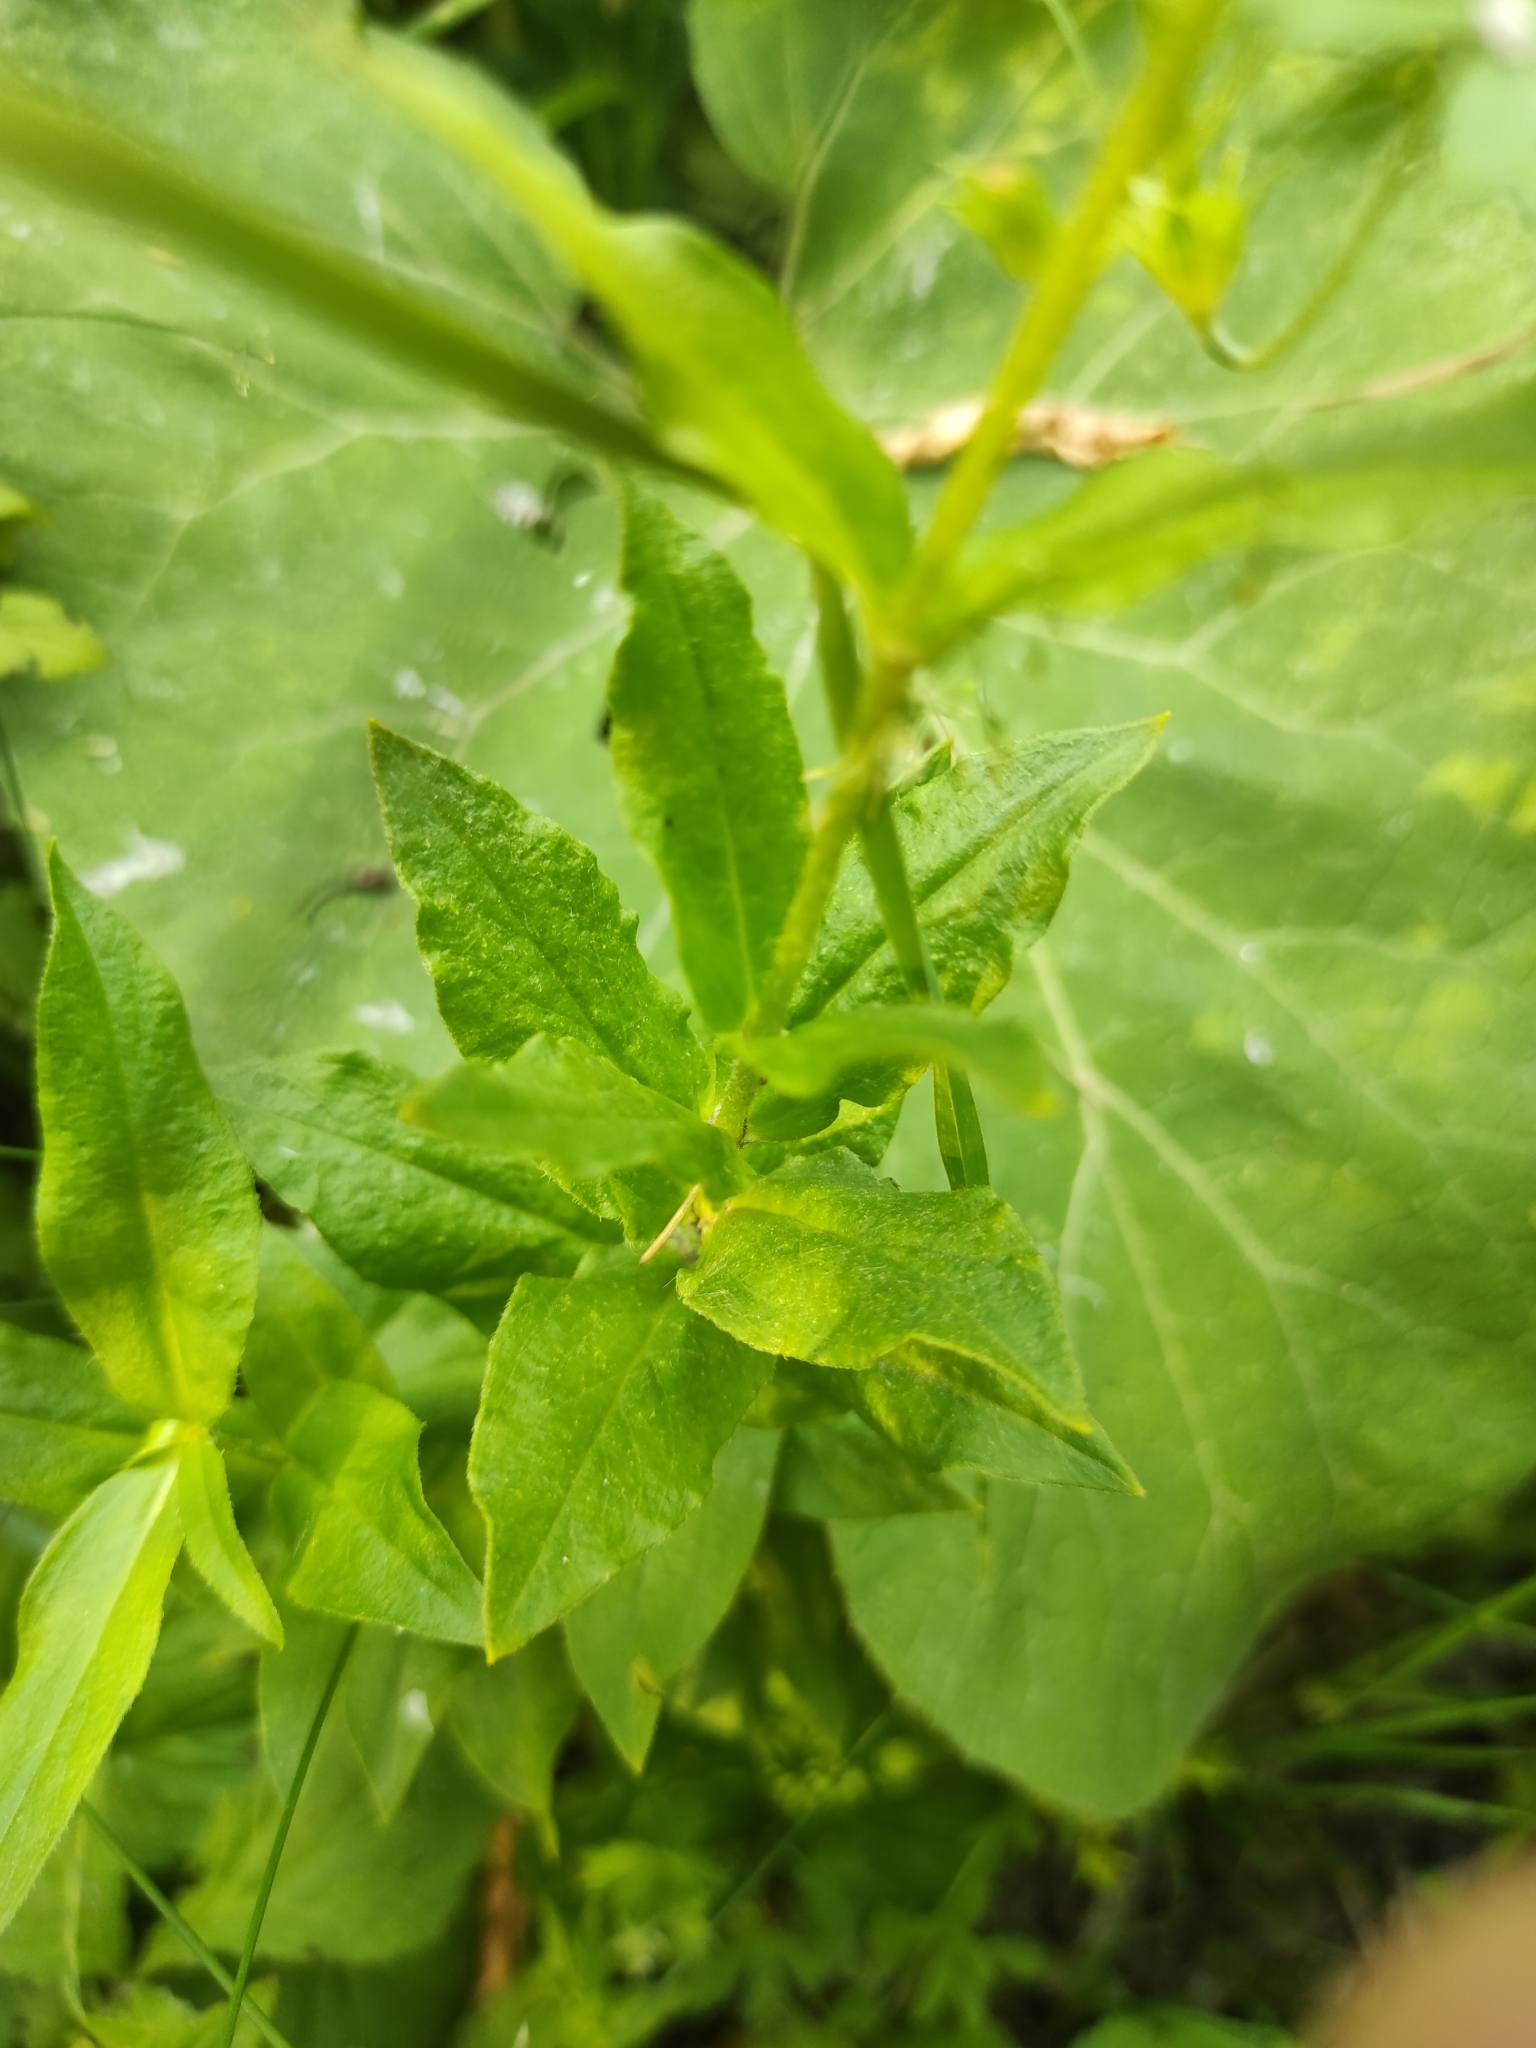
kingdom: Plantae
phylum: Tracheophyta
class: Magnoliopsida
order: Caryophyllales
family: Caryophyllaceae
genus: Silene
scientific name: Silene chalcedonica
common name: Maltese-cross
